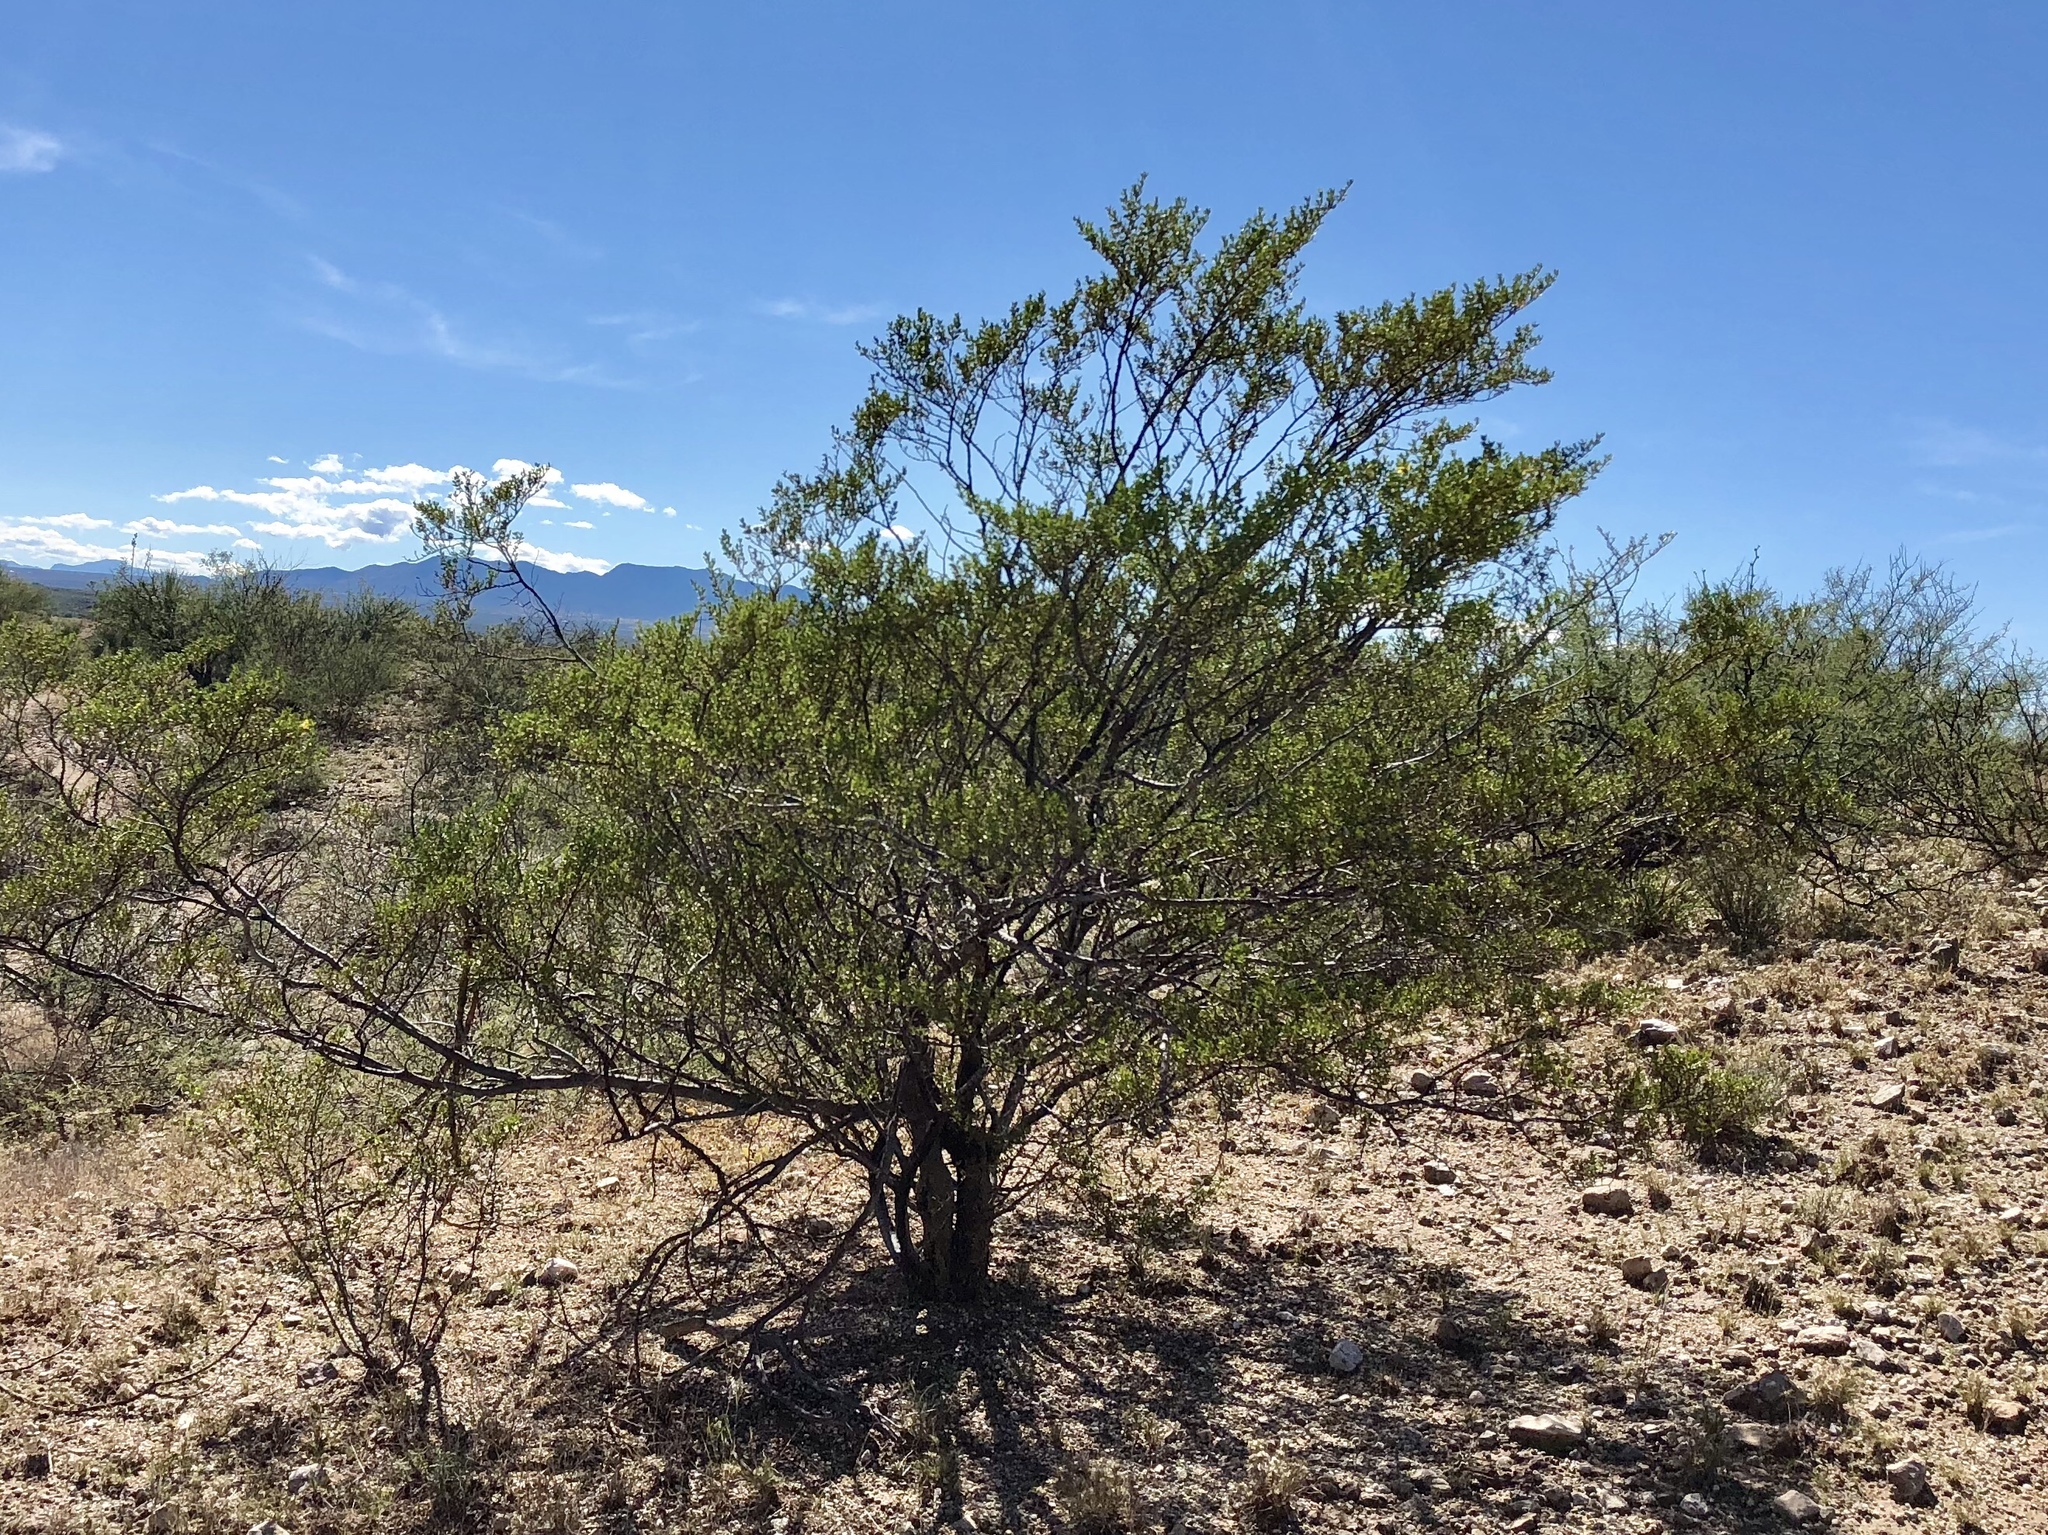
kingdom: Plantae
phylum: Tracheophyta
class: Magnoliopsida
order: Zygophyllales
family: Zygophyllaceae
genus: Larrea
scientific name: Larrea tridentata
